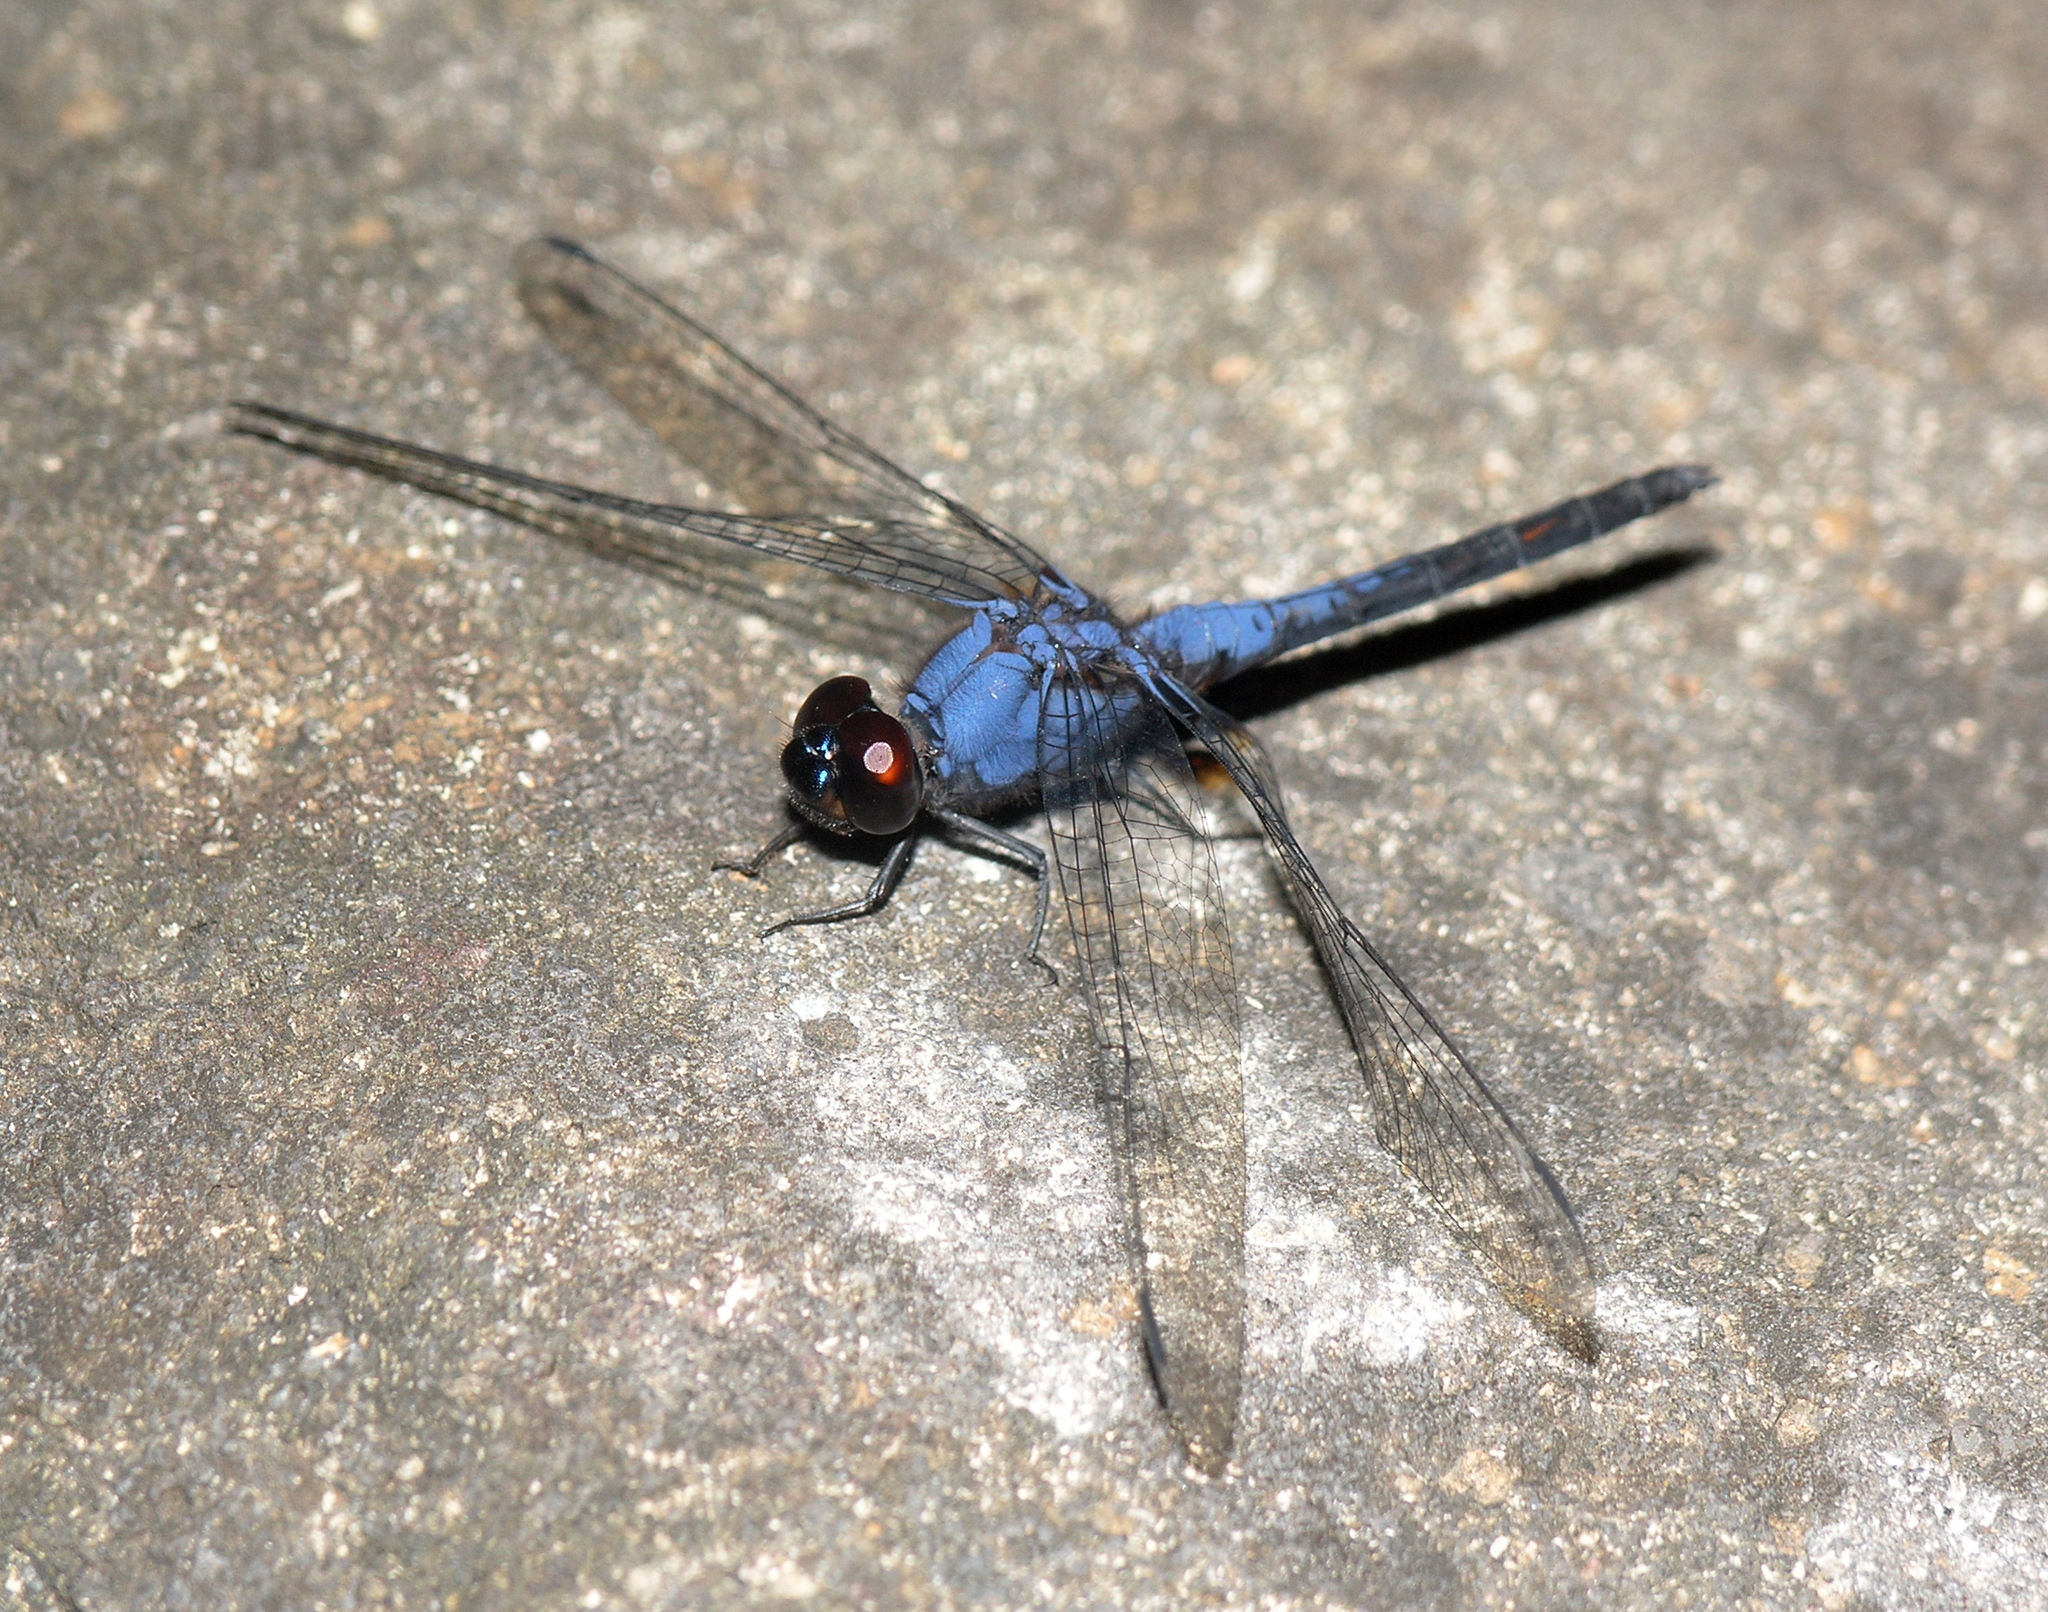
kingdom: Animalia
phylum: Arthropoda
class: Insecta
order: Odonata
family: Libellulidae
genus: Trithemis
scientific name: Trithemis festiva
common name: Indigo dropwing
